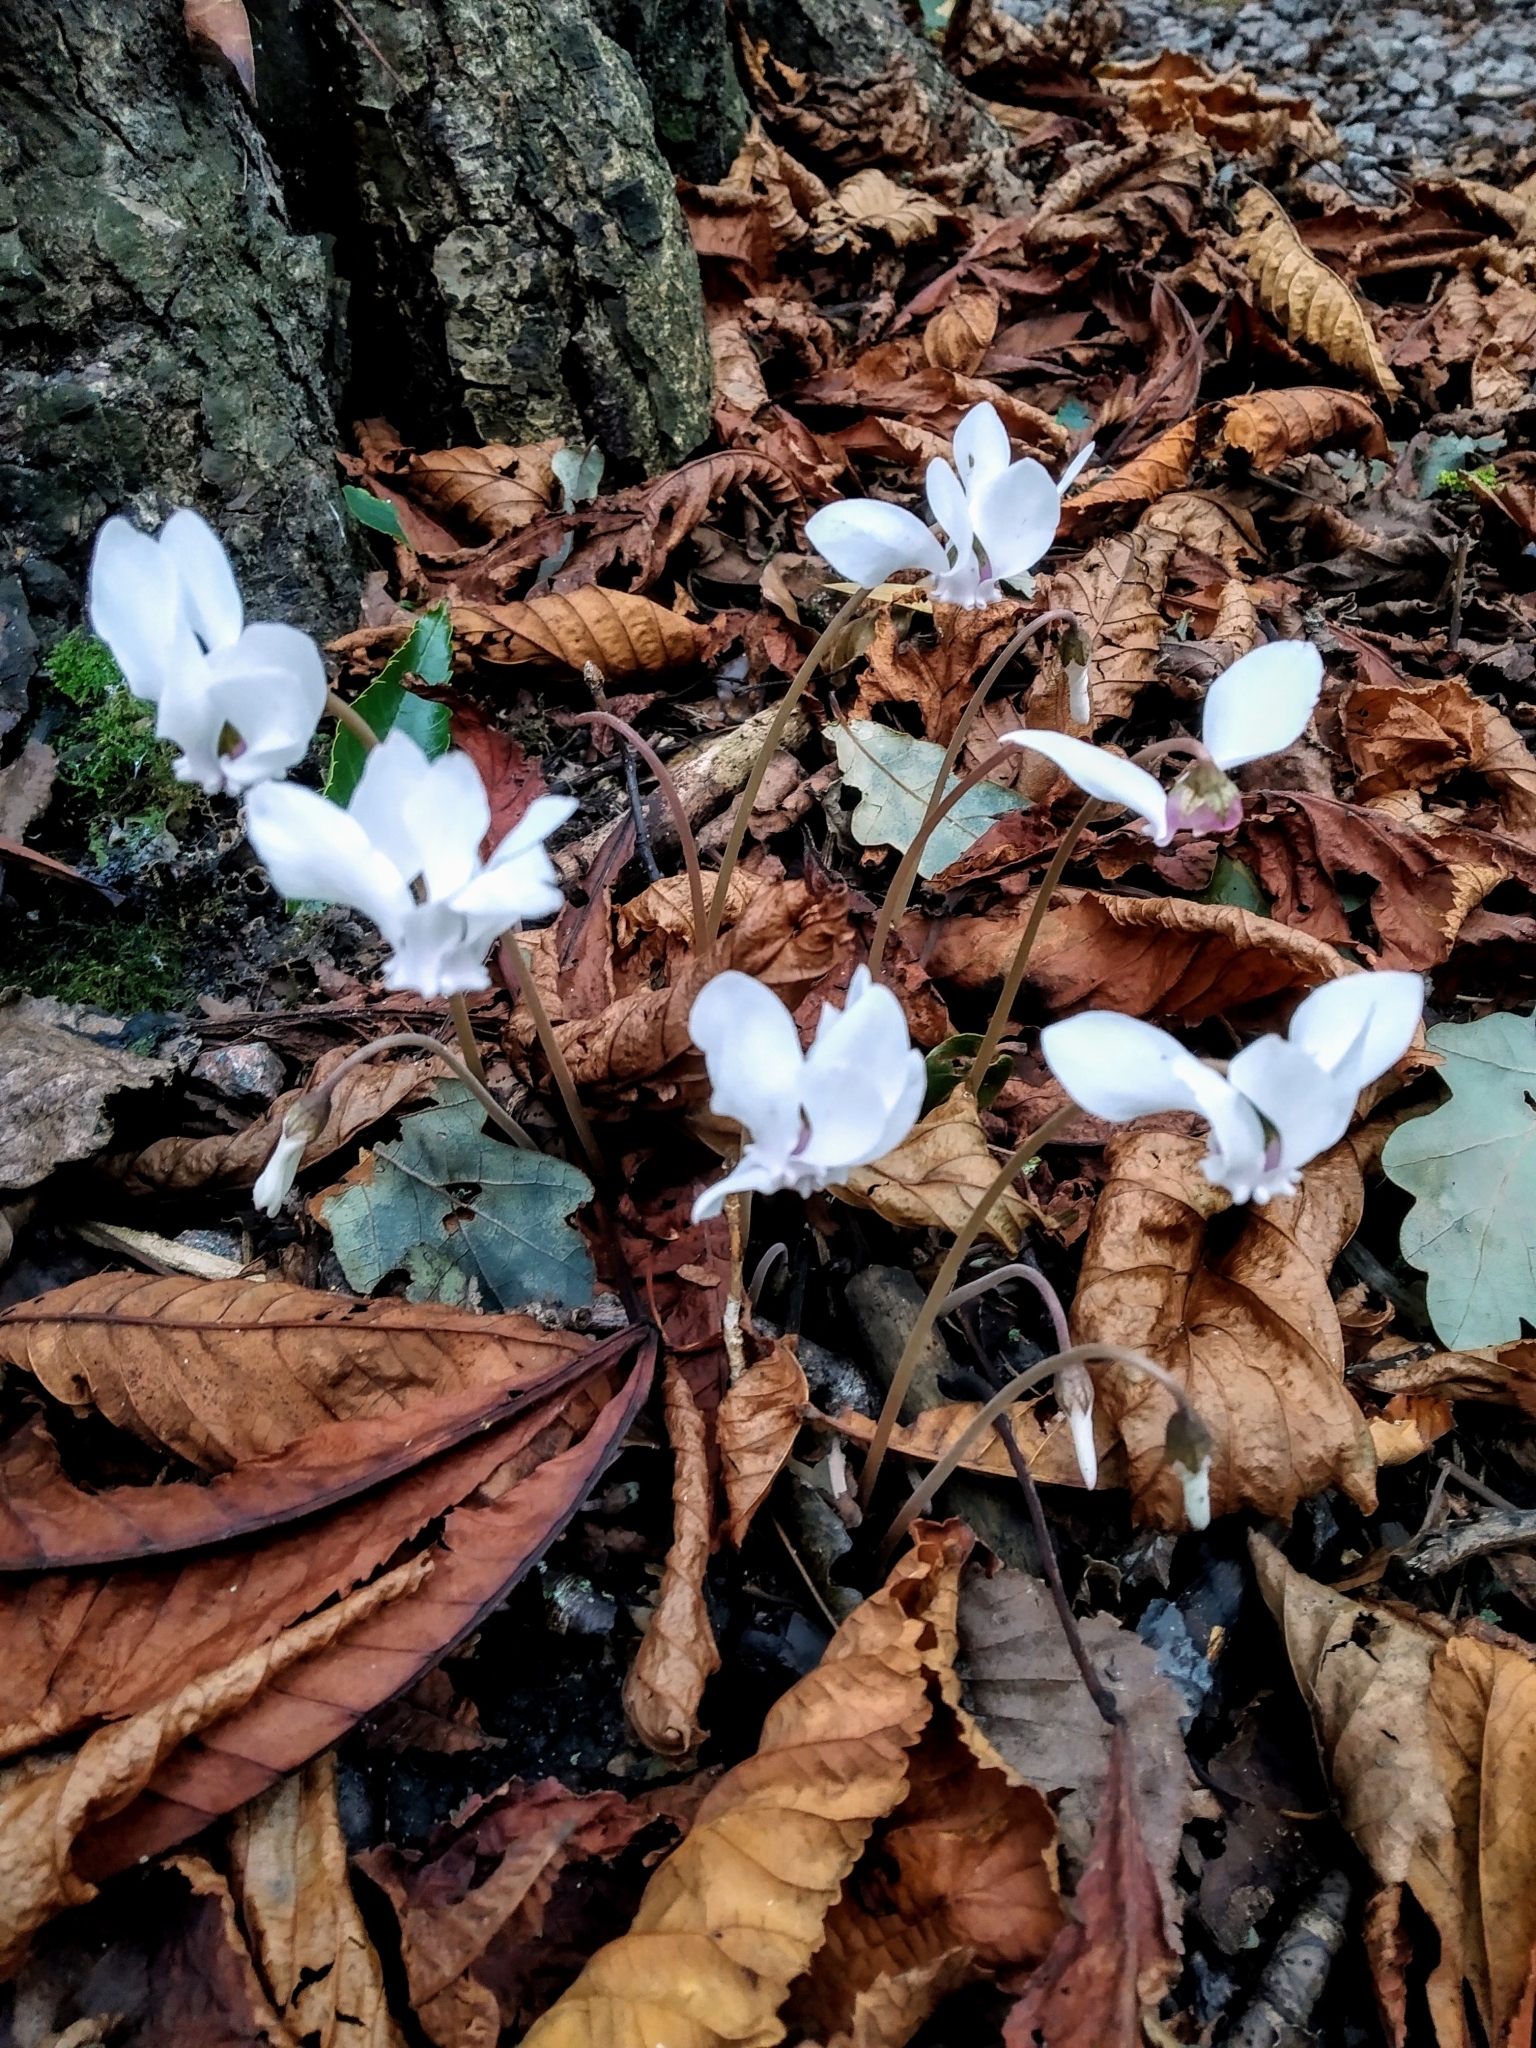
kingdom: Plantae
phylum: Tracheophyta
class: Magnoliopsida
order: Ericales
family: Primulaceae
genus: Cyclamen
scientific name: Cyclamen hederifolium
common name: Sowbread
